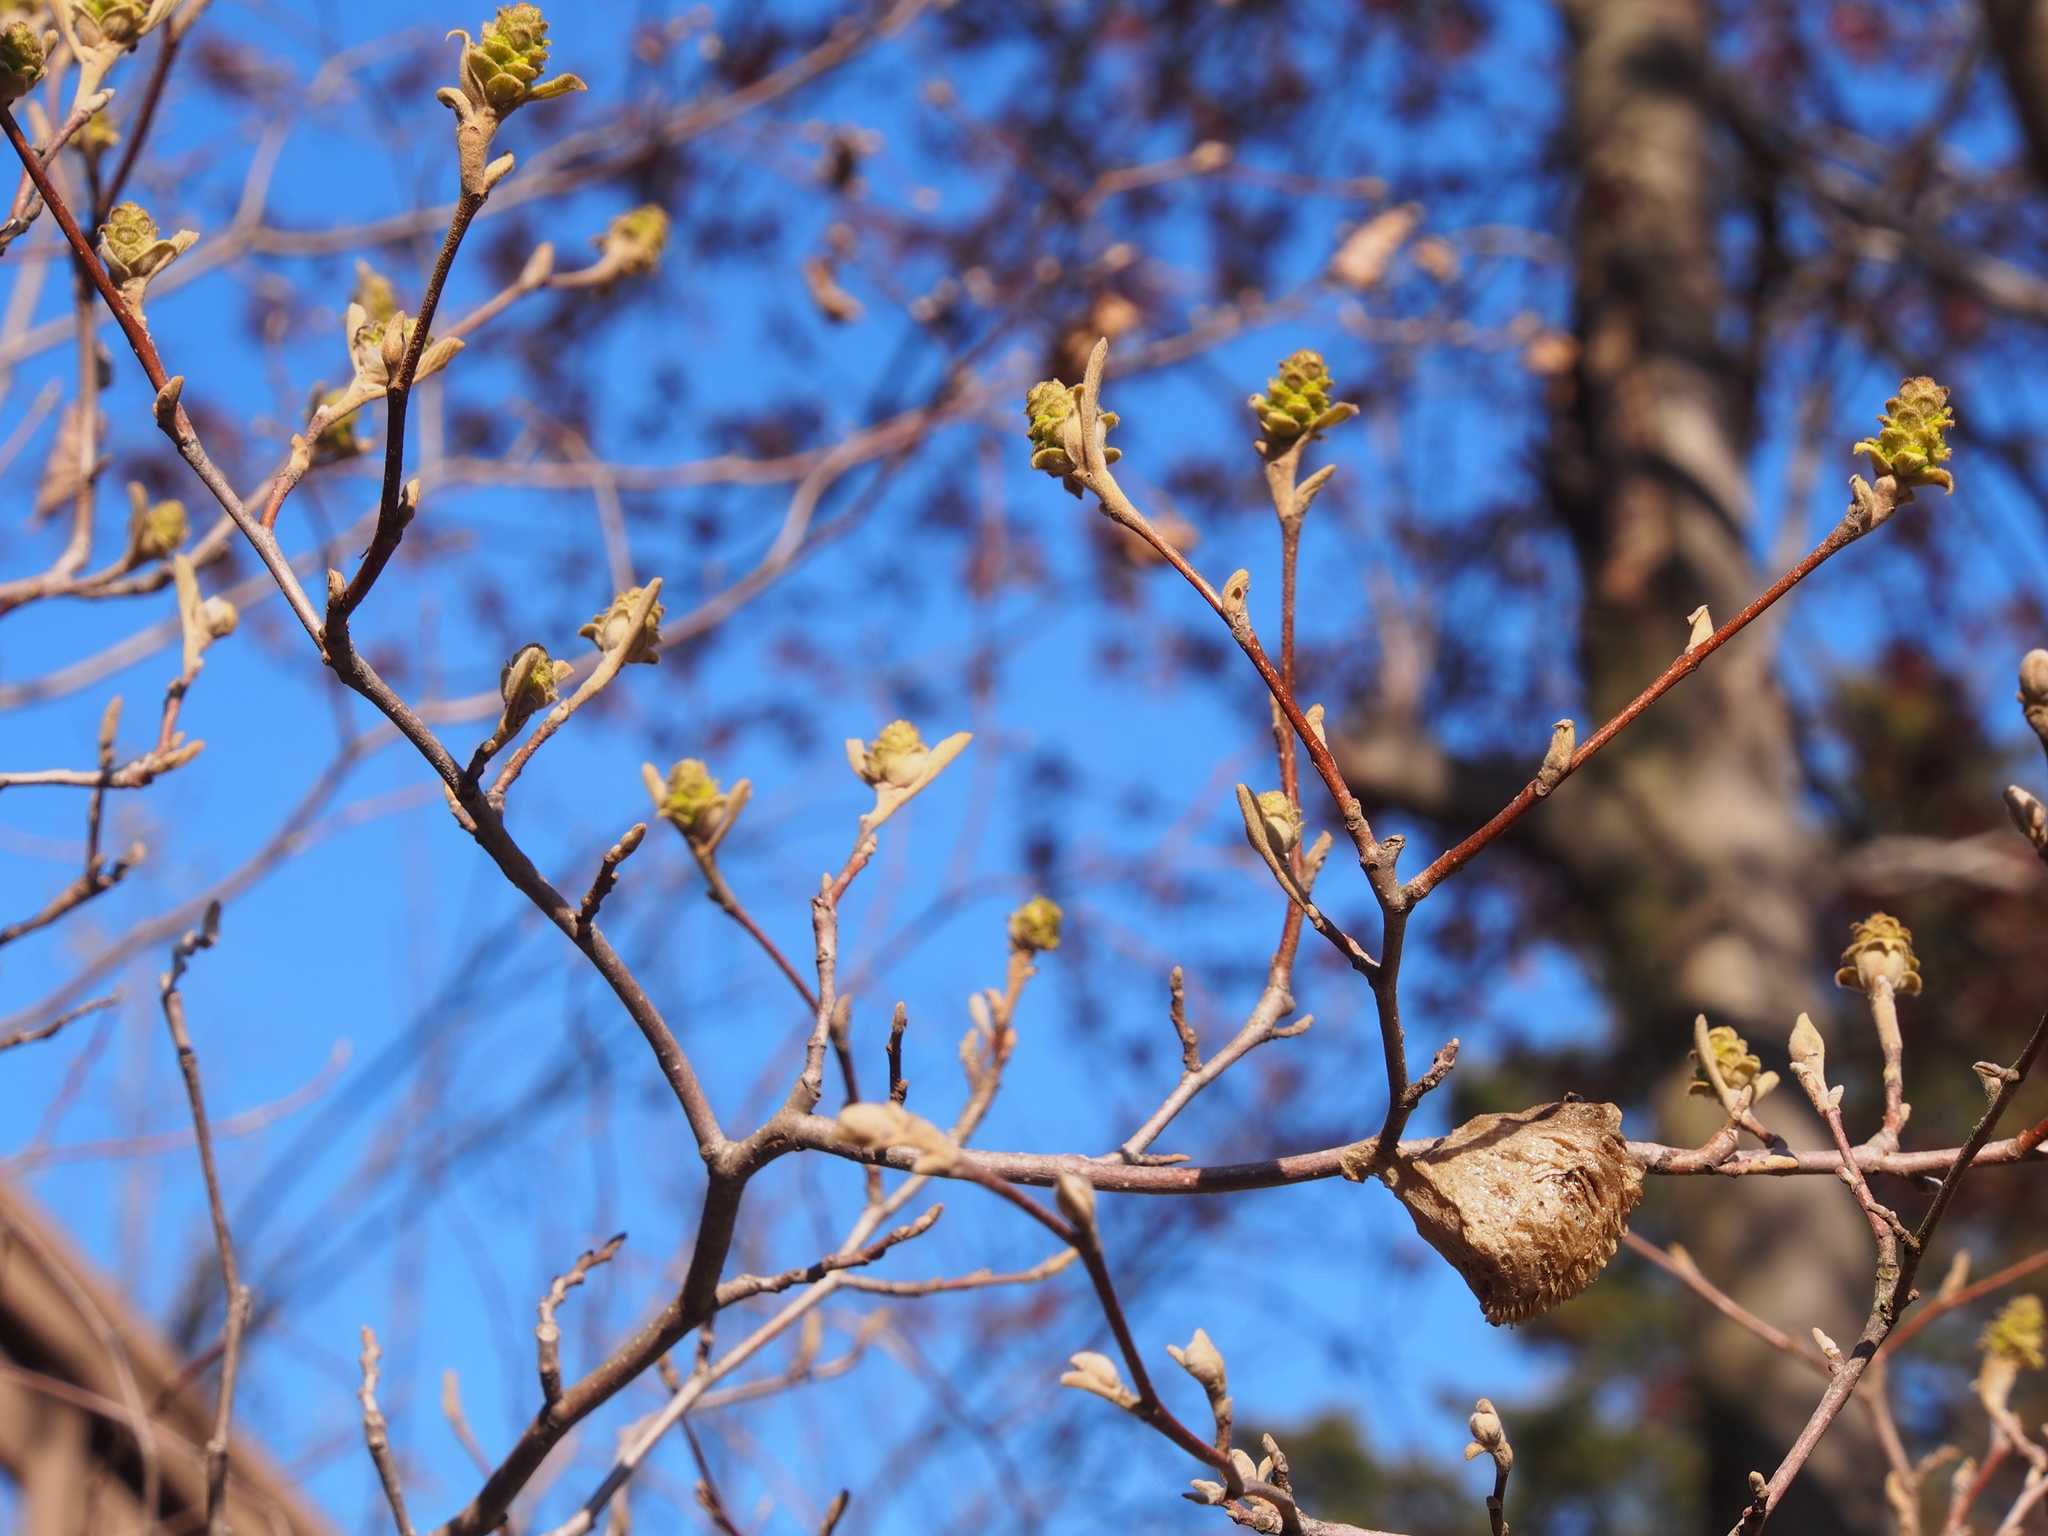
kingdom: Animalia
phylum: Arthropoda
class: Insecta
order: Mantodea
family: Mantidae
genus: Tenodera
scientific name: Tenodera sinensis
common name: Chinese mantis
